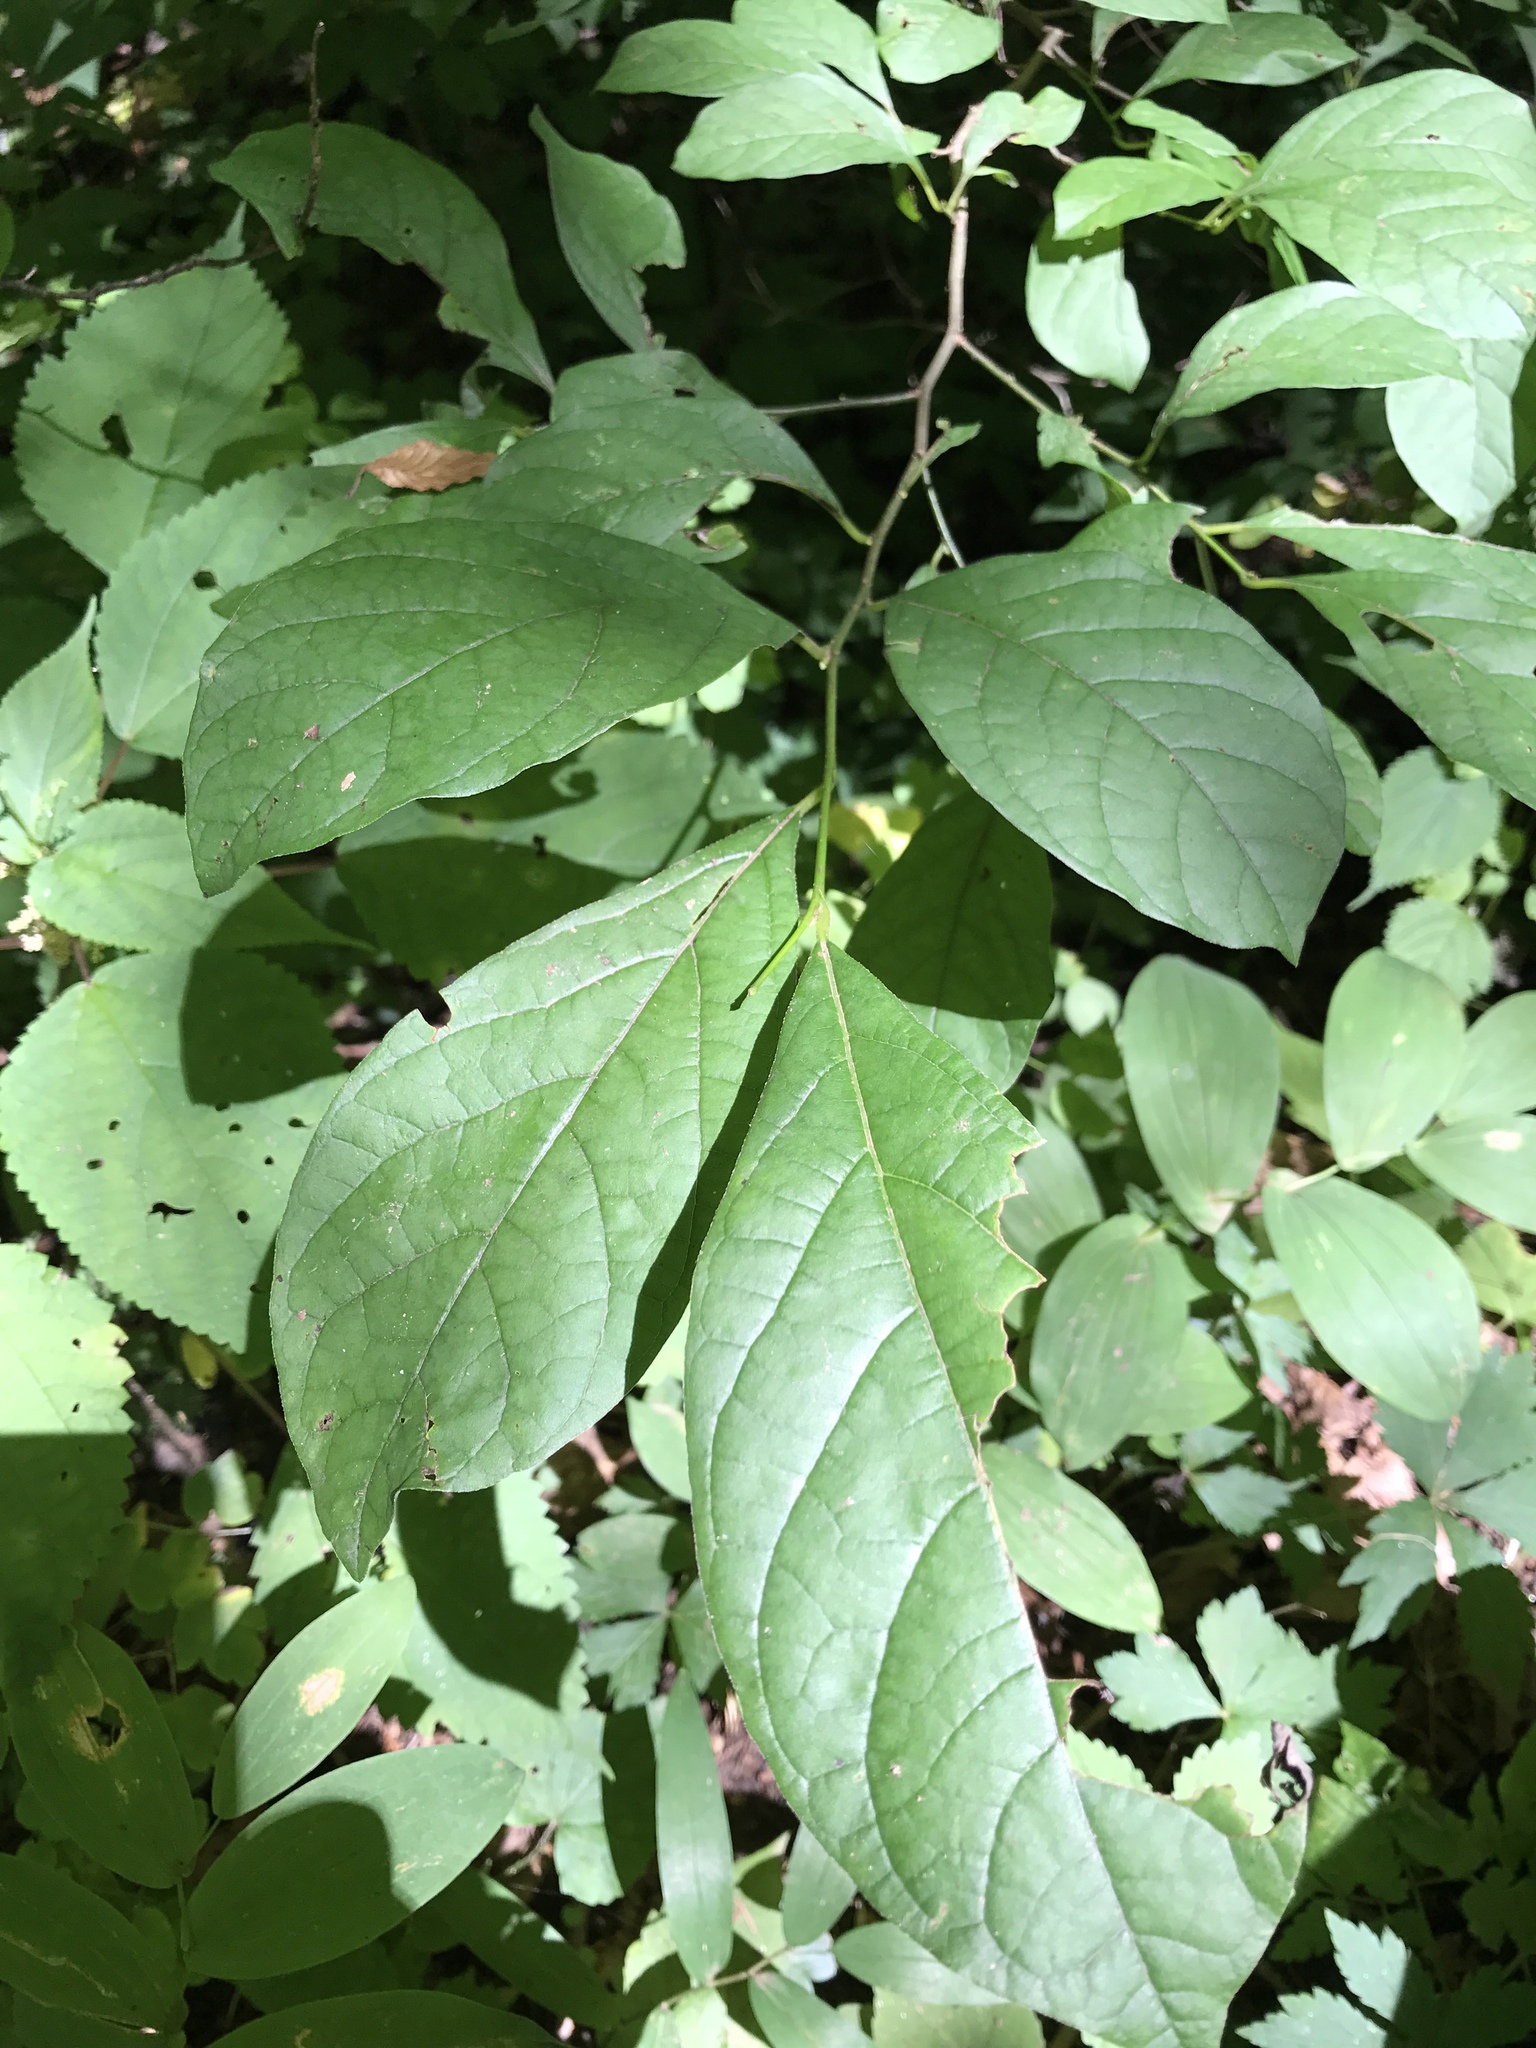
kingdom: Plantae
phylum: Tracheophyta
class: Magnoliopsida
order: Laurales
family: Lauraceae
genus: Lindera
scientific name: Lindera benzoin
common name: Spicebush
